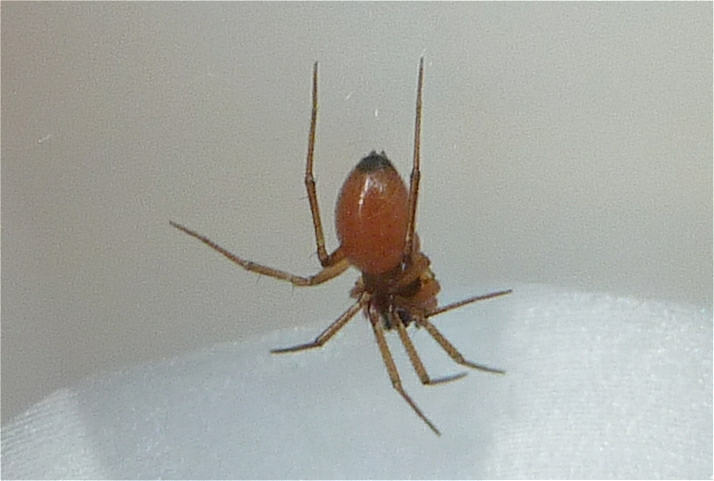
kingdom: Animalia
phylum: Arthropoda
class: Arachnida
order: Araneae
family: Linyphiidae
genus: Ostearius
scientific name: Ostearius melanopygius
